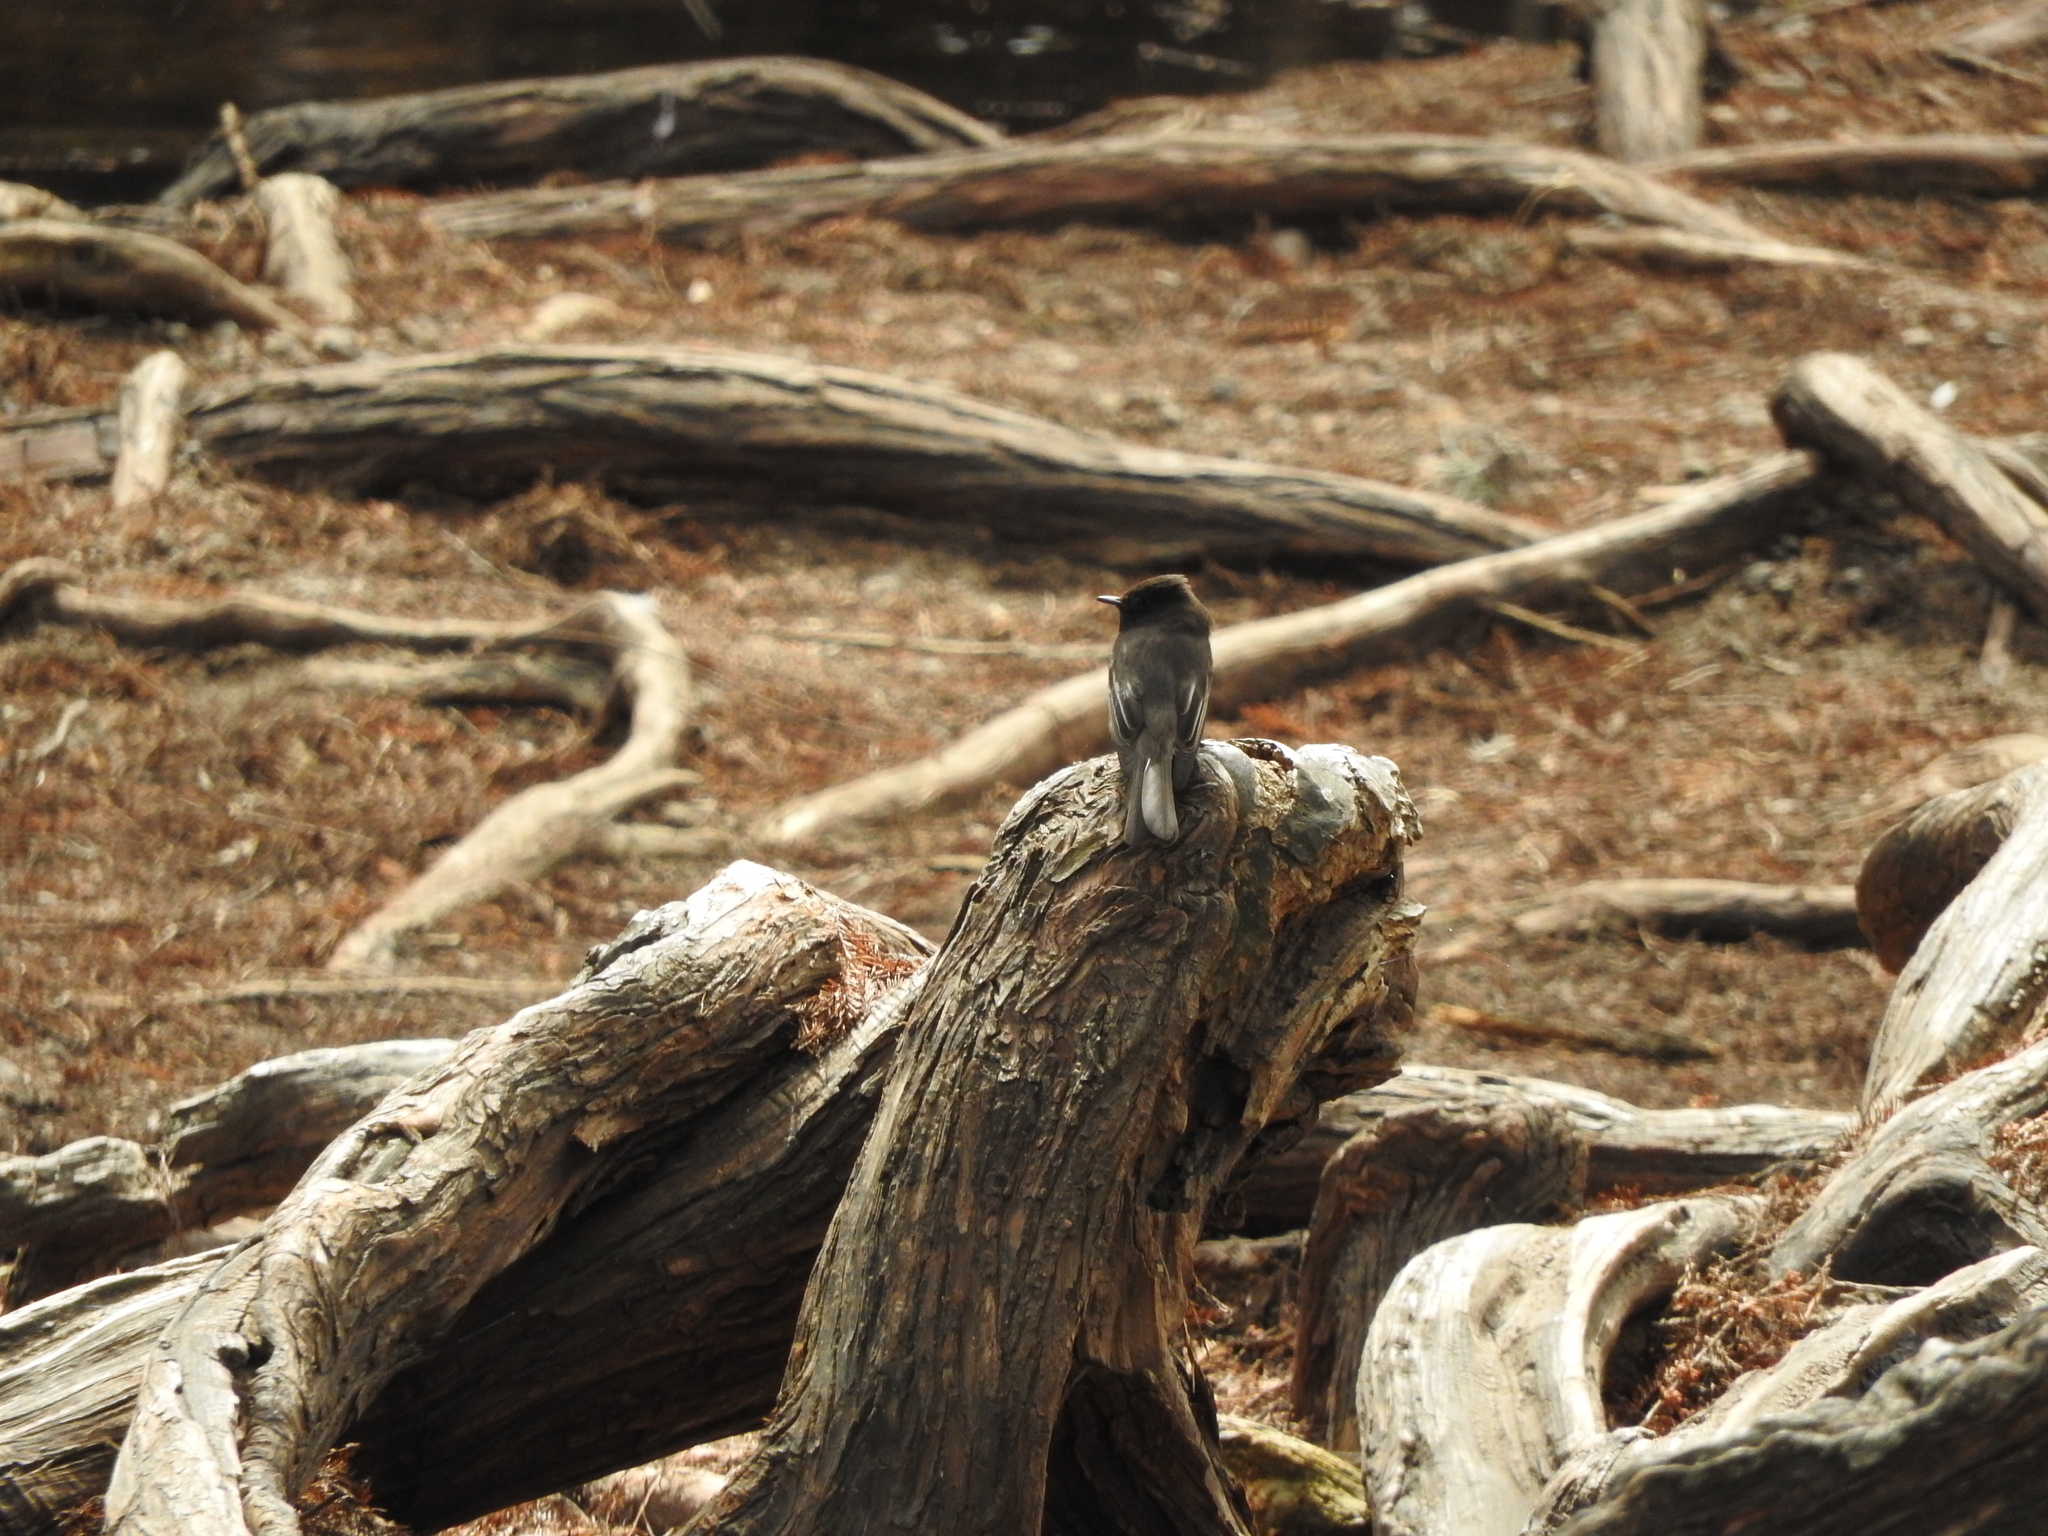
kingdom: Animalia
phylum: Chordata
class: Aves
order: Passeriformes
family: Tyrannidae
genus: Sayornis
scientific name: Sayornis nigricans
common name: Black phoebe
